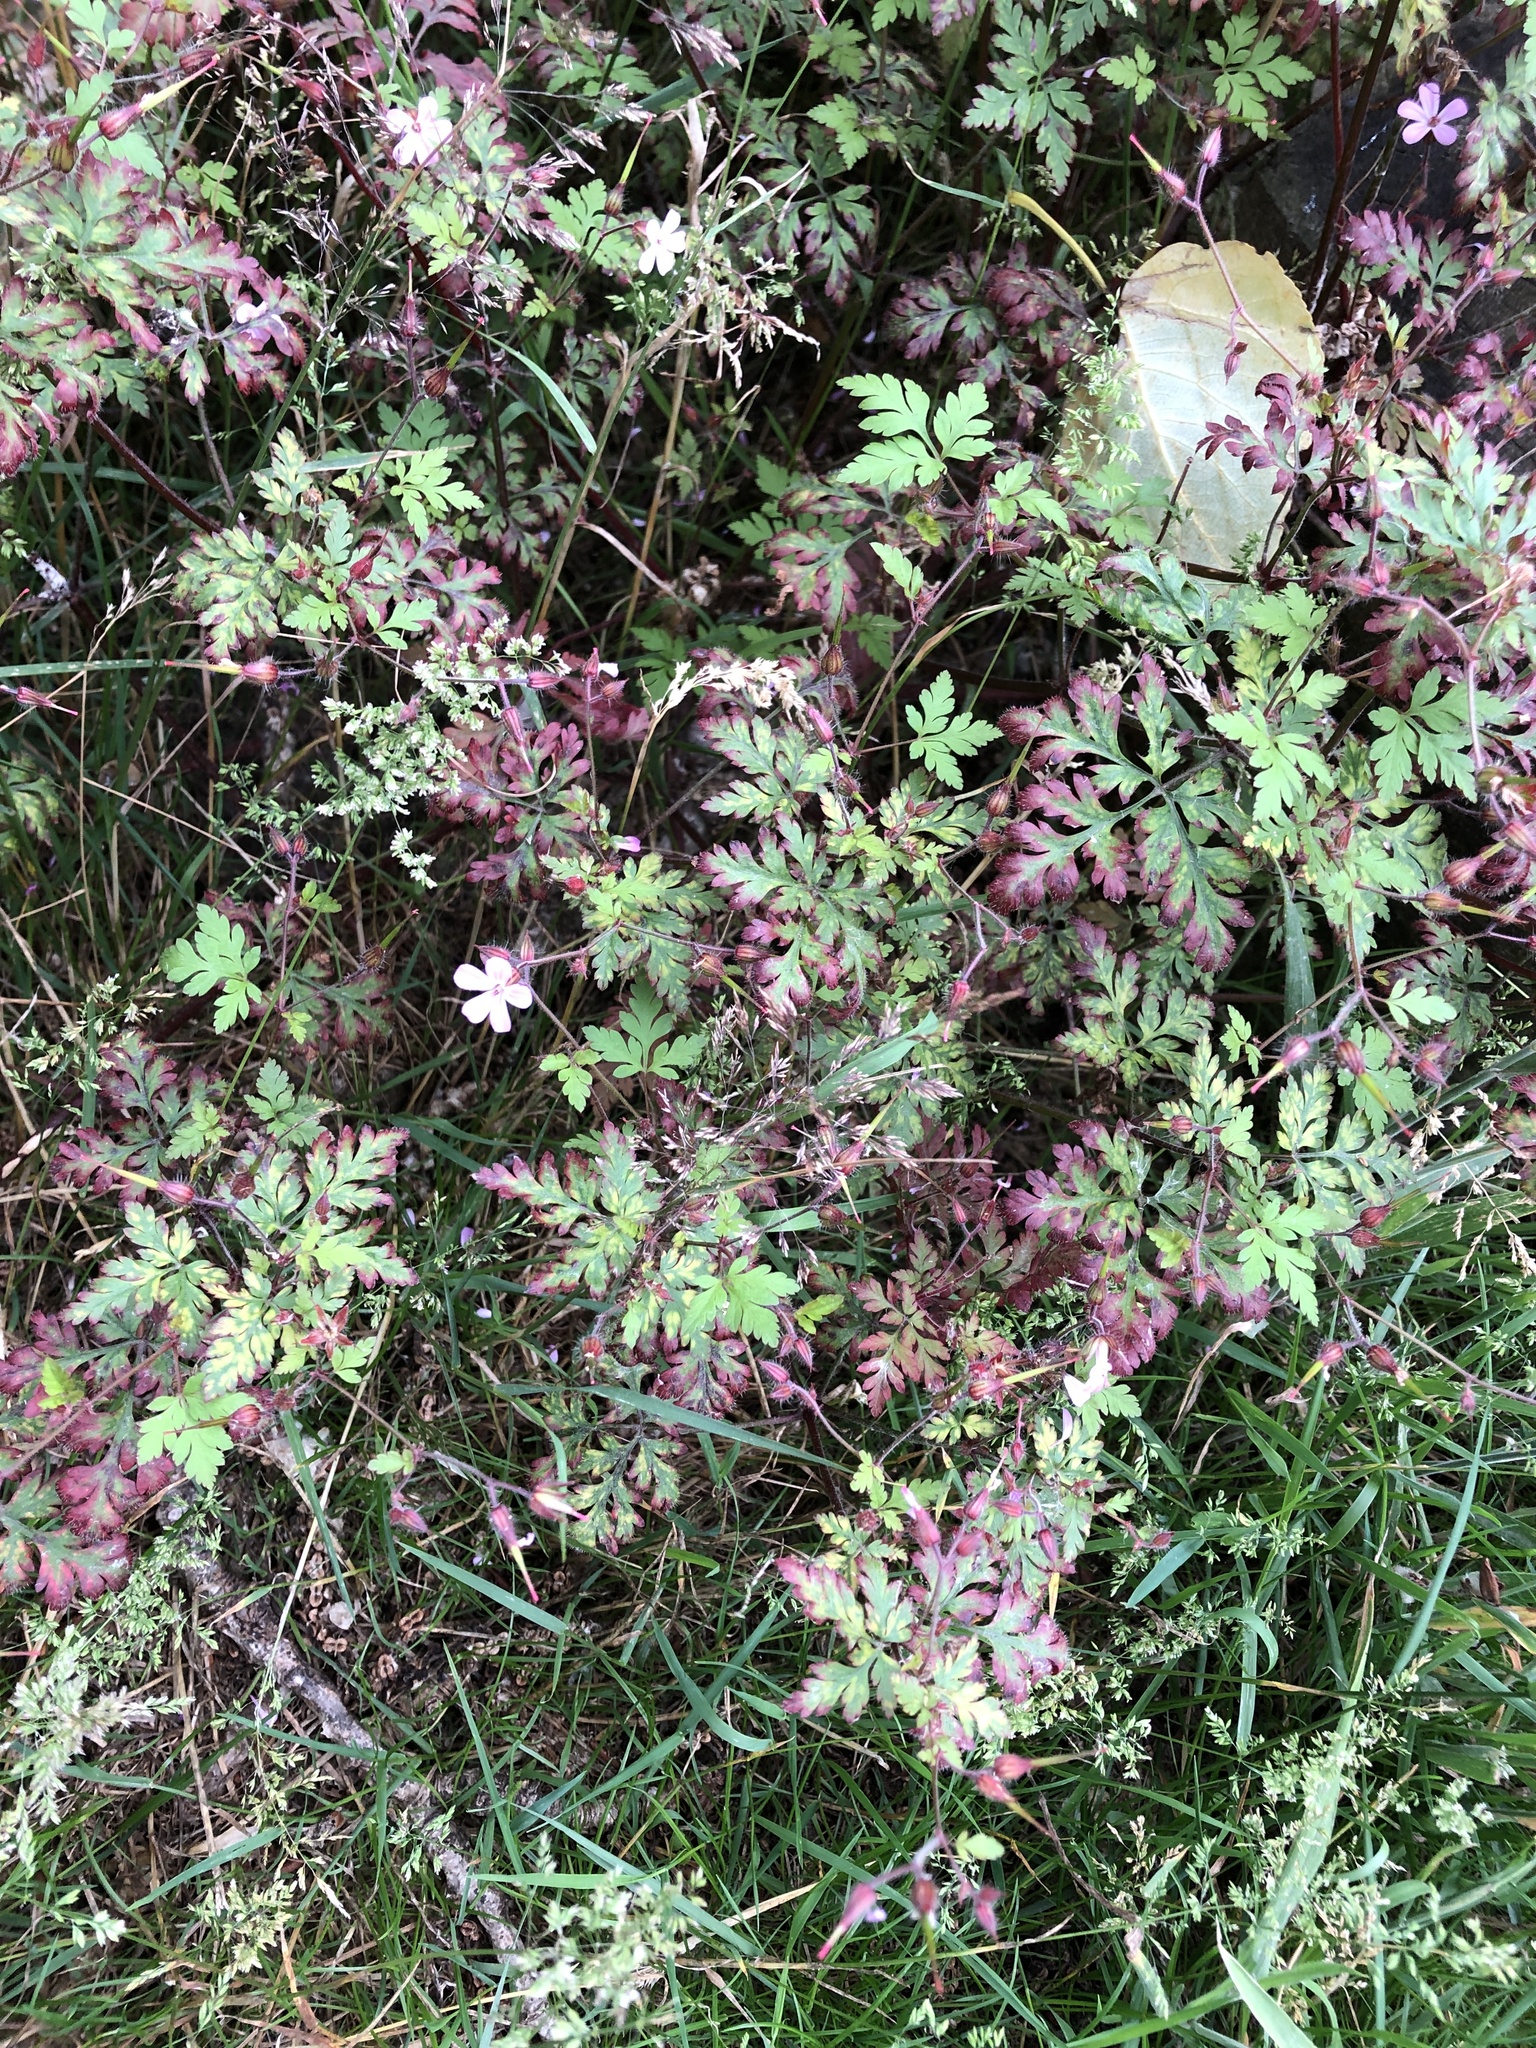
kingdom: Plantae
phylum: Tracheophyta
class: Magnoliopsida
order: Geraniales
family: Geraniaceae
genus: Geranium
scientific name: Geranium robertianum
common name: Herb-robert
